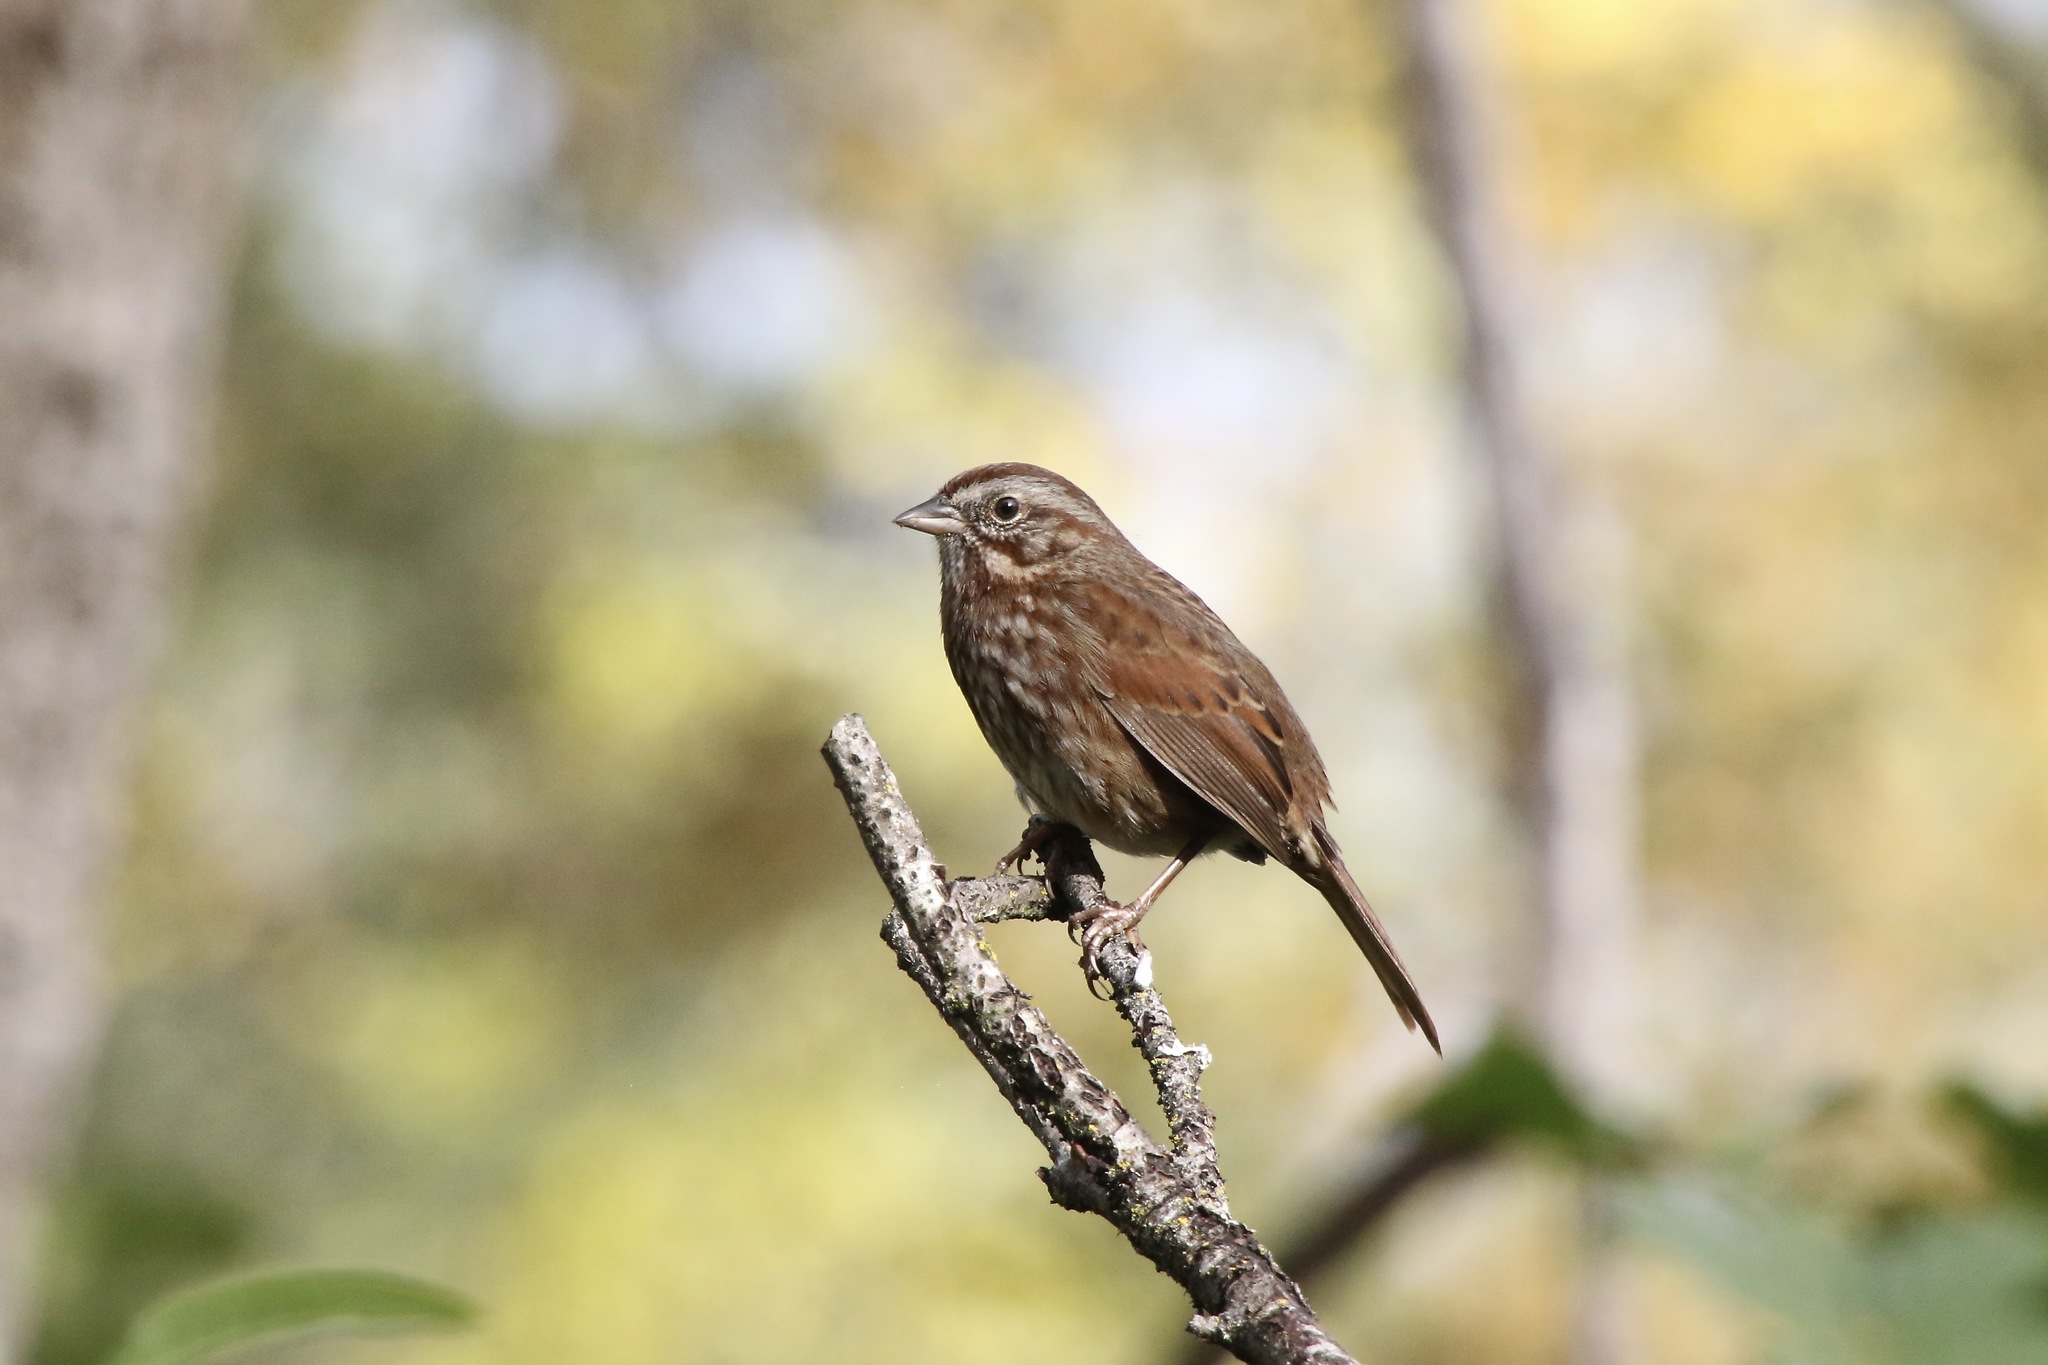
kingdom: Animalia
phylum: Chordata
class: Aves
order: Passeriformes
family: Passerellidae
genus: Melospiza
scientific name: Melospiza melodia
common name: Song sparrow
